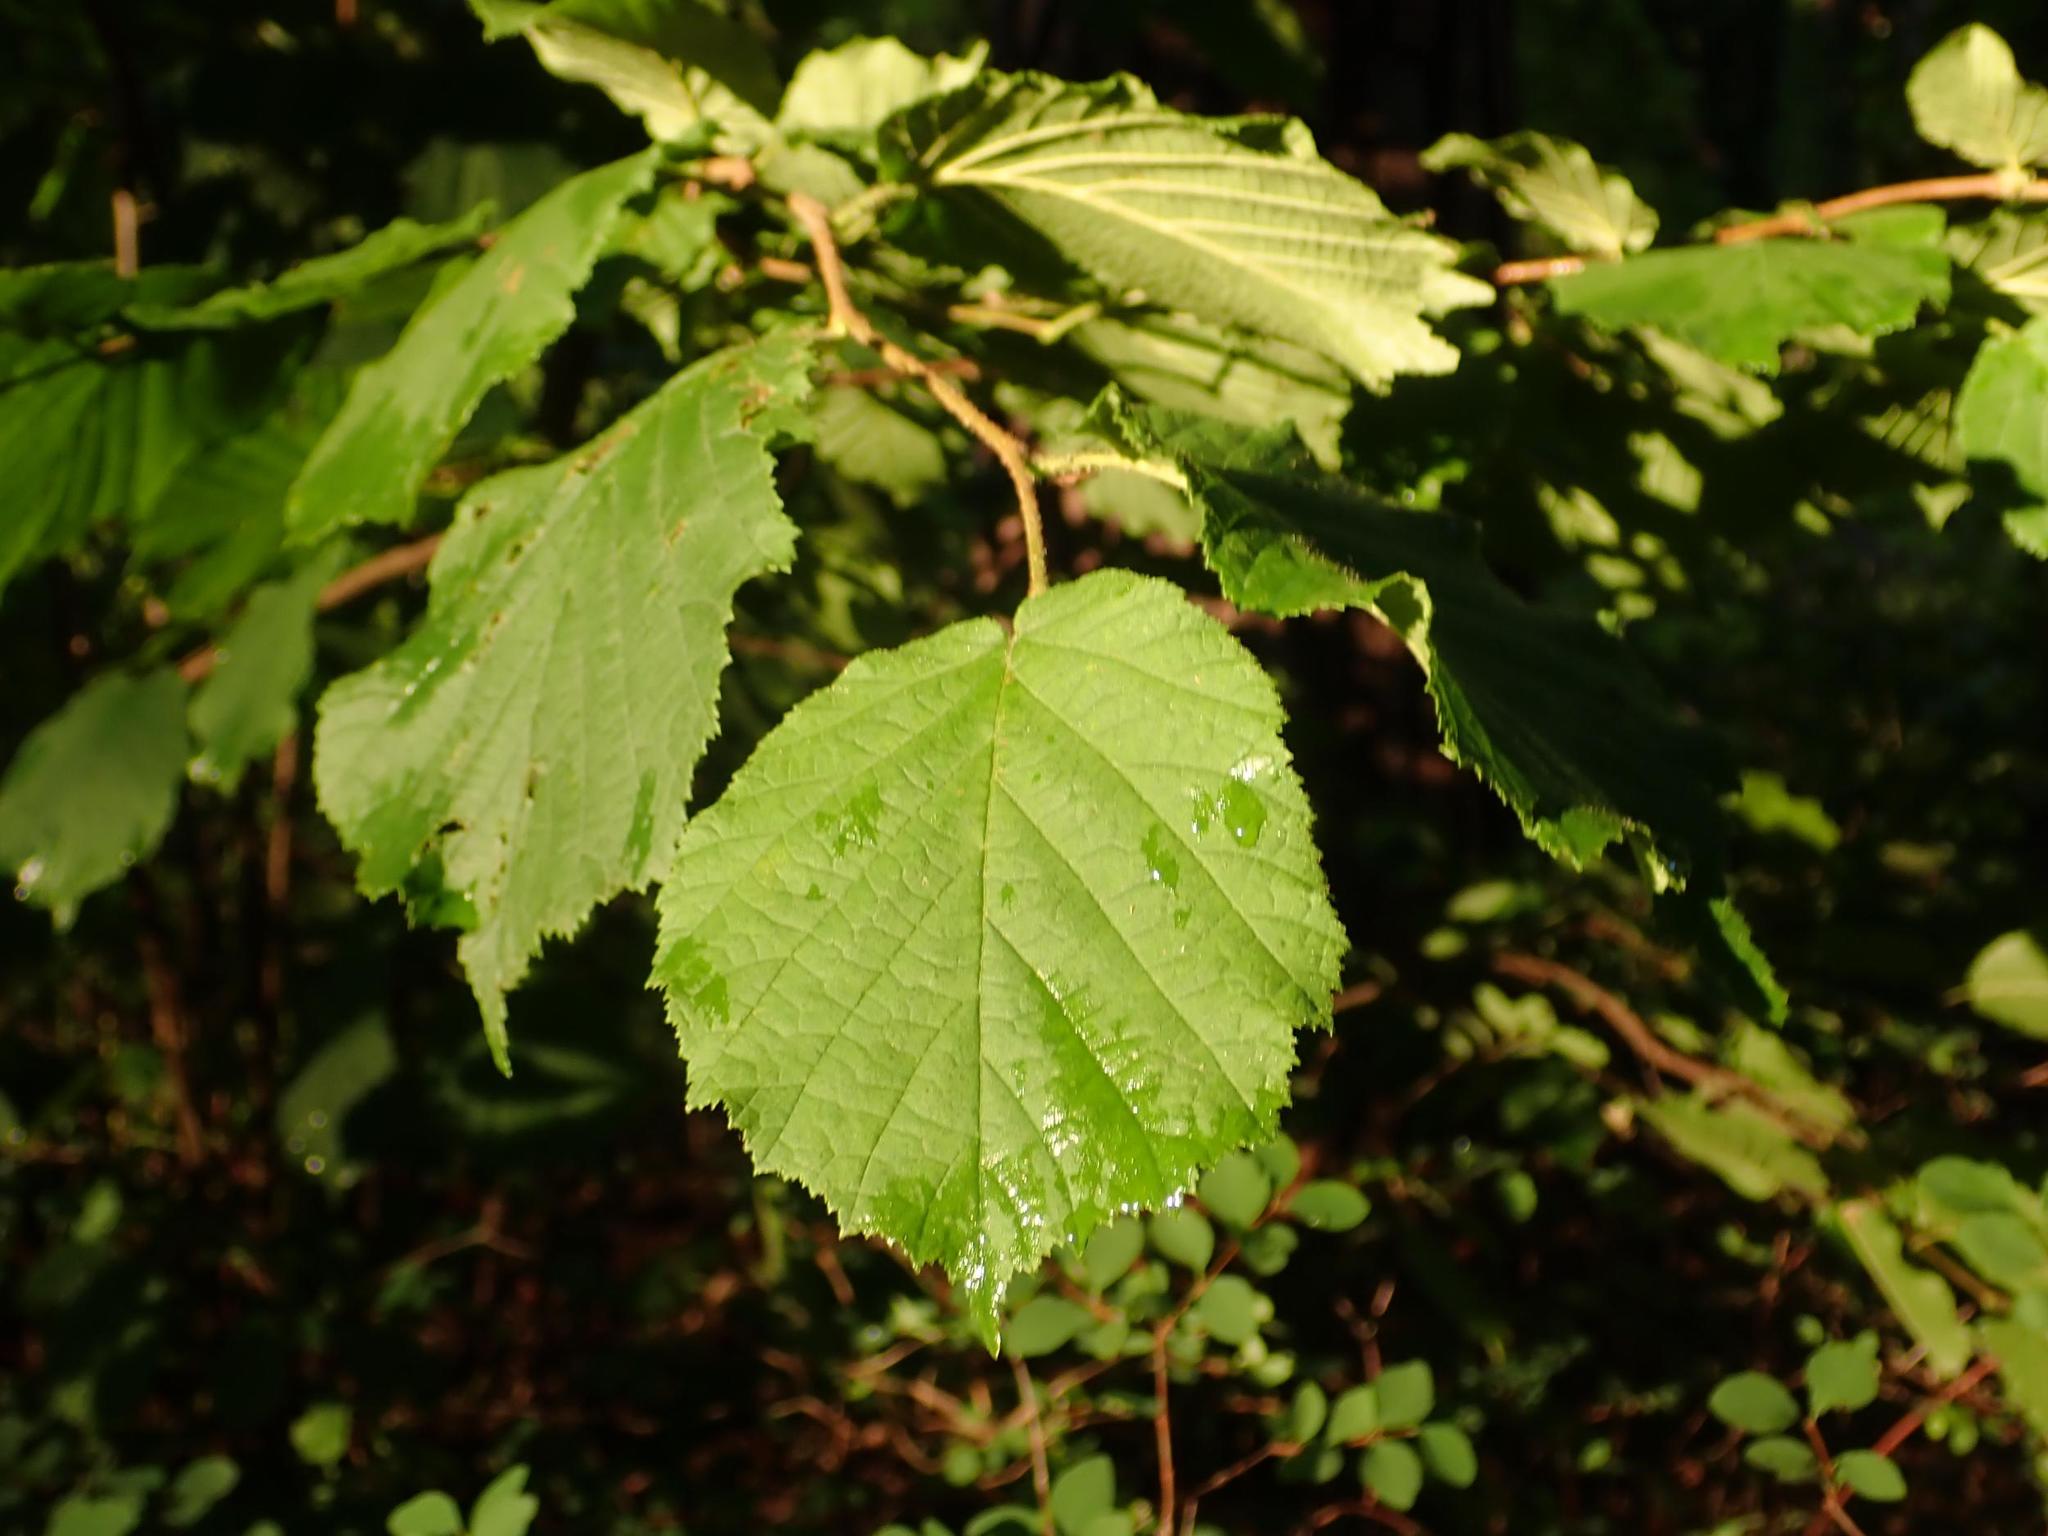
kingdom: Plantae
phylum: Tracheophyta
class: Magnoliopsida
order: Fagales
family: Betulaceae
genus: Corylus
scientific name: Corylus avellana
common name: European hazel
